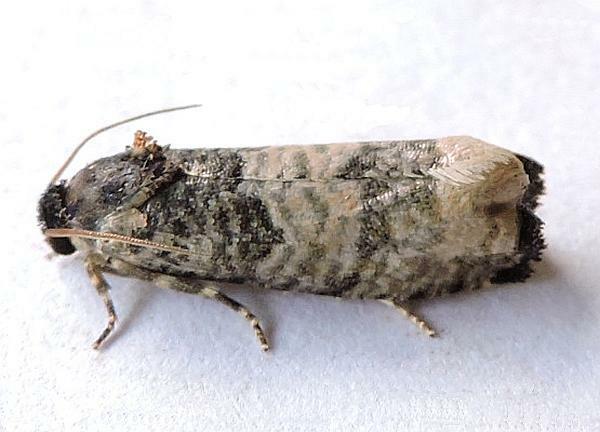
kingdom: Animalia
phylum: Arthropoda
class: Insecta
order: Lepidoptera
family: Tortricidae
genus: Epiblema
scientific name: Epiblema obfuscana
